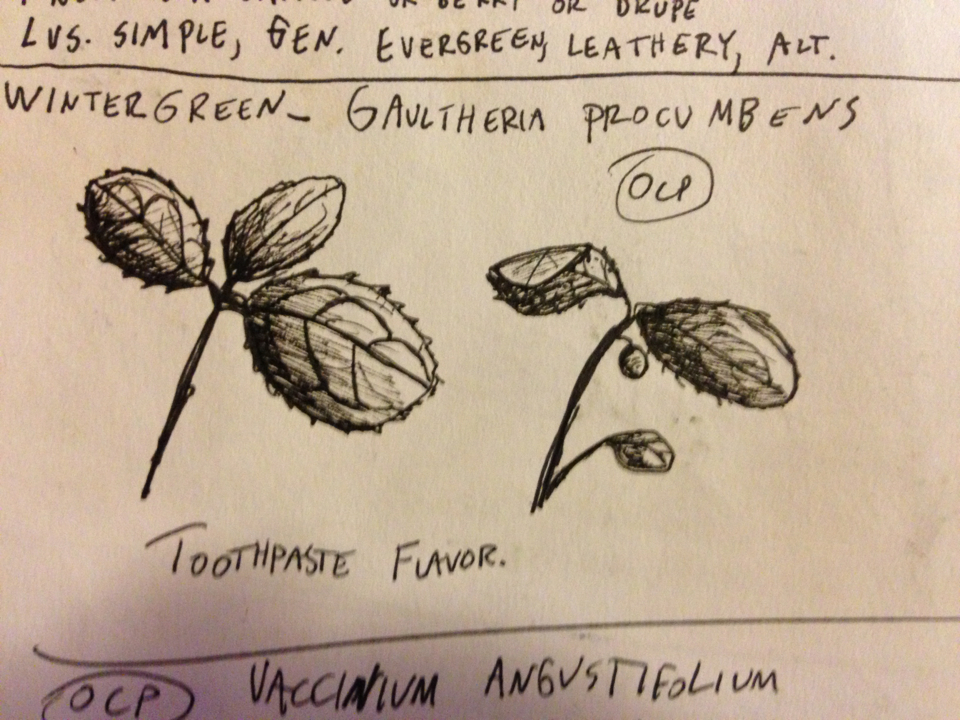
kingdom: Plantae
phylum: Tracheophyta
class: Magnoliopsida
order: Ericales
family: Ericaceae
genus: Gaultheria
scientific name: Gaultheria procumbens
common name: Checkerberry
